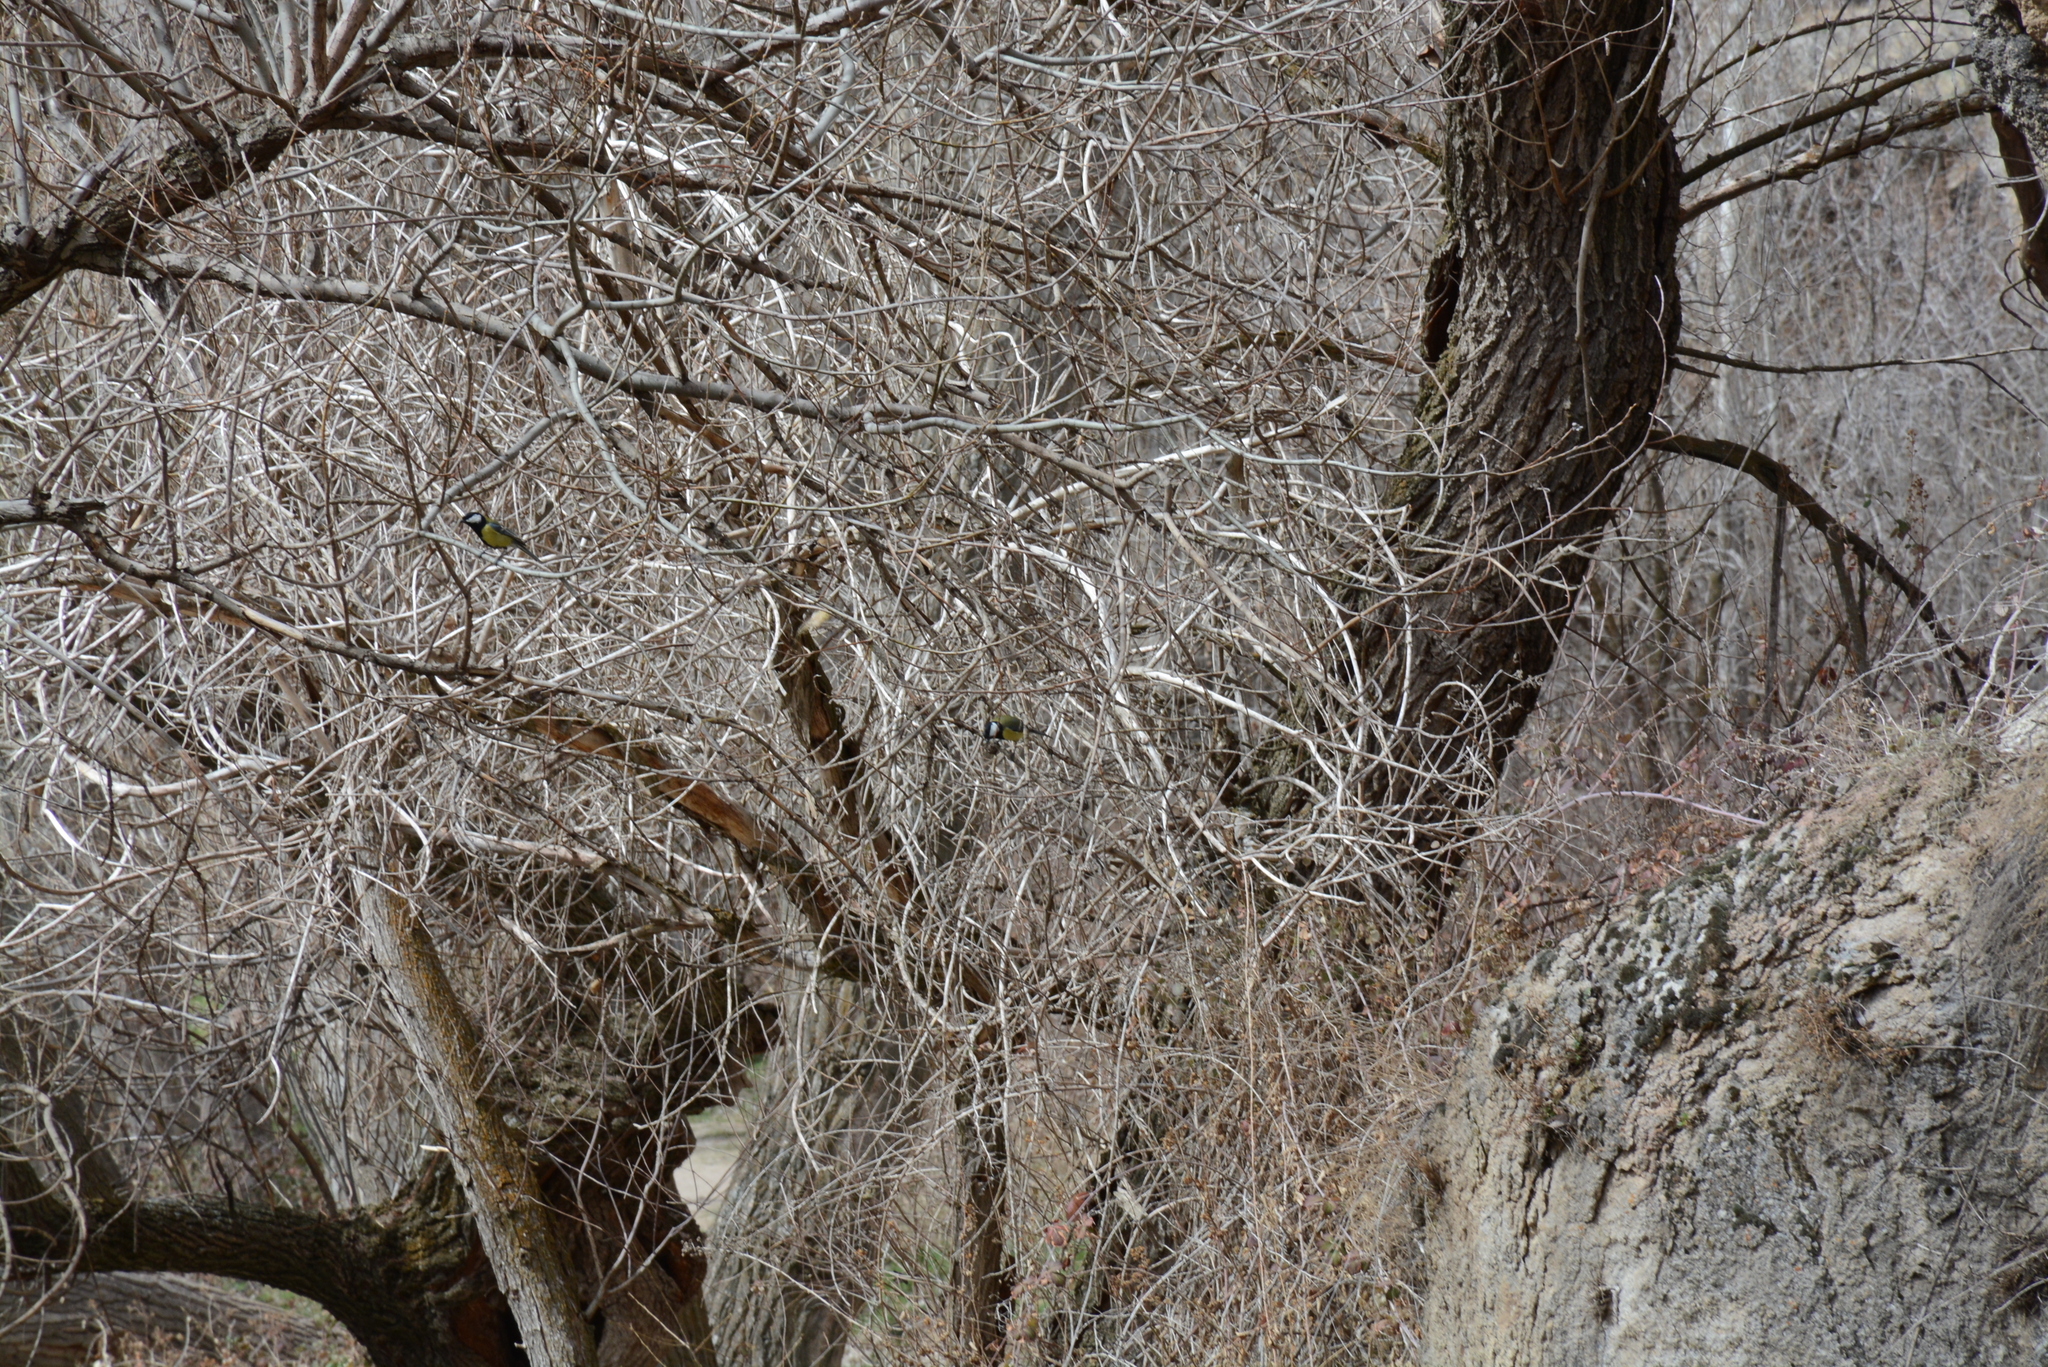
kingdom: Animalia
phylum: Chordata
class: Aves
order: Passeriformes
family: Paridae
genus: Parus
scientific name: Parus major
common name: Great tit
